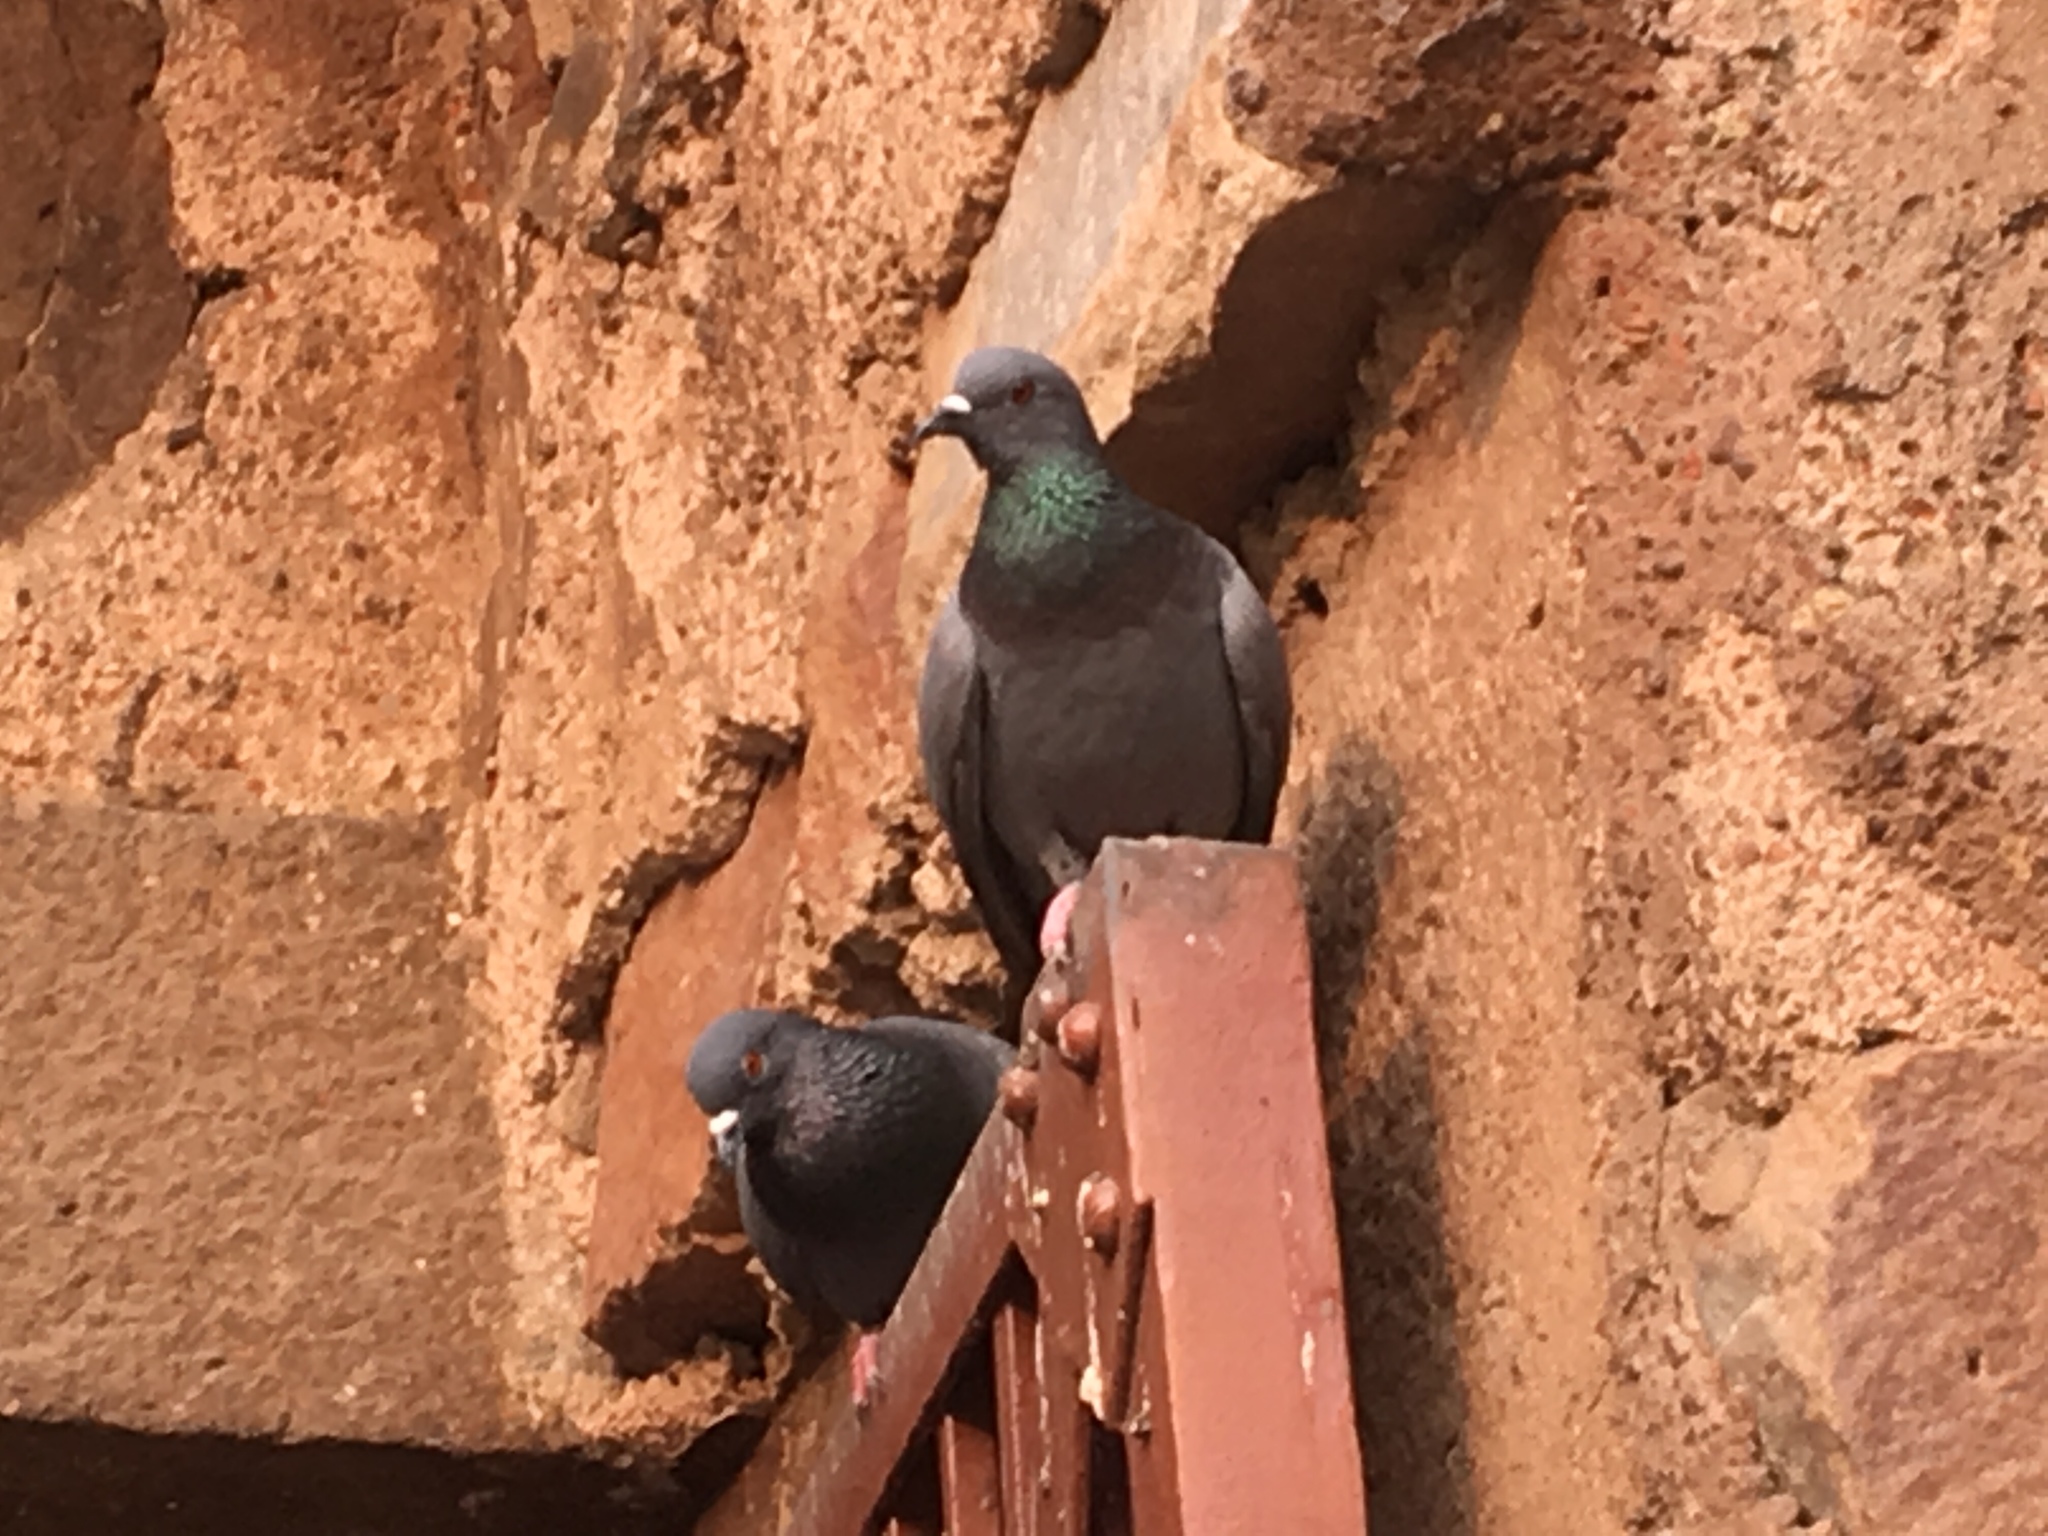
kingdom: Animalia
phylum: Chordata
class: Aves
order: Columbiformes
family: Columbidae
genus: Columba
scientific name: Columba livia
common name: Rock pigeon
